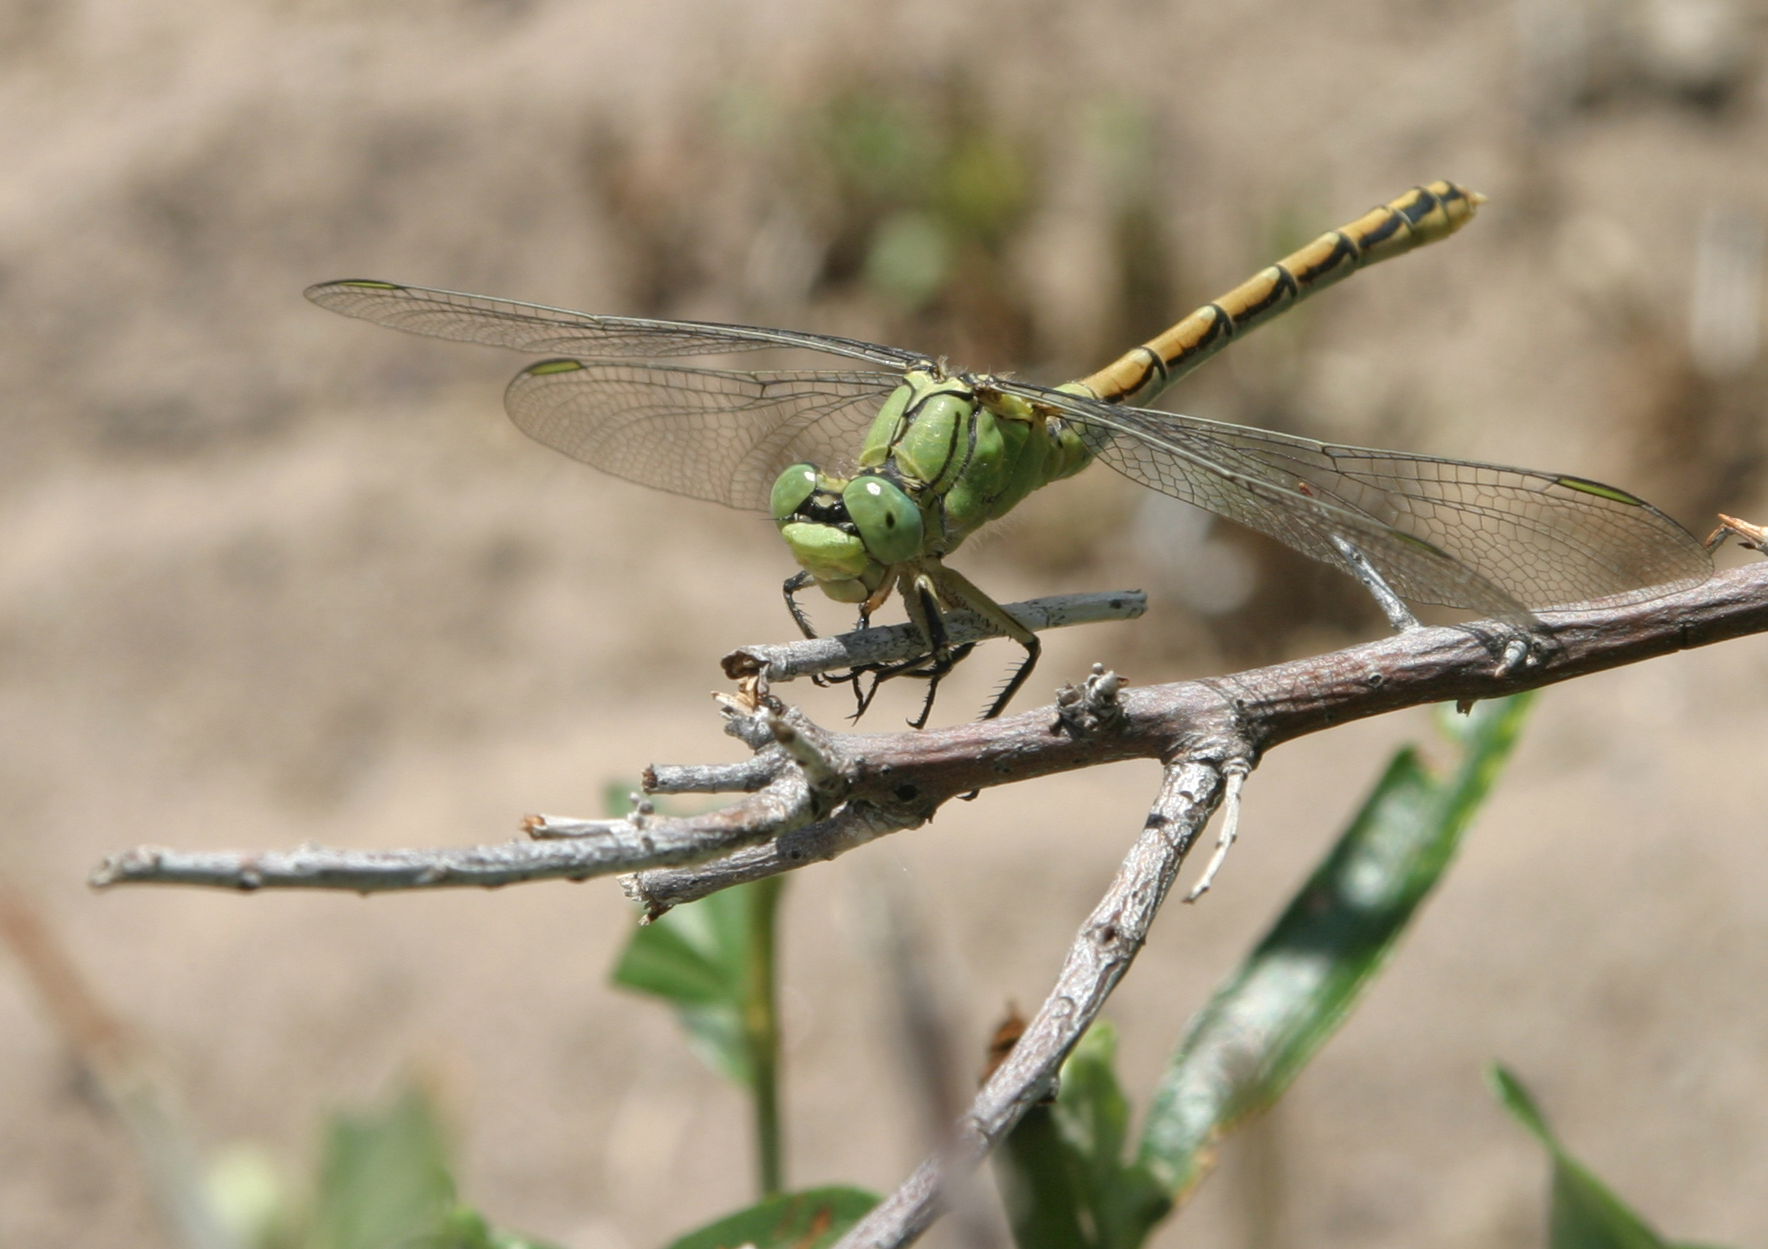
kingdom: Animalia
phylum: Arthropoda
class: Insecta
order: Odonata
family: Gomphidae
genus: Ophiogomphus
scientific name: Ophiogomphus reductus
